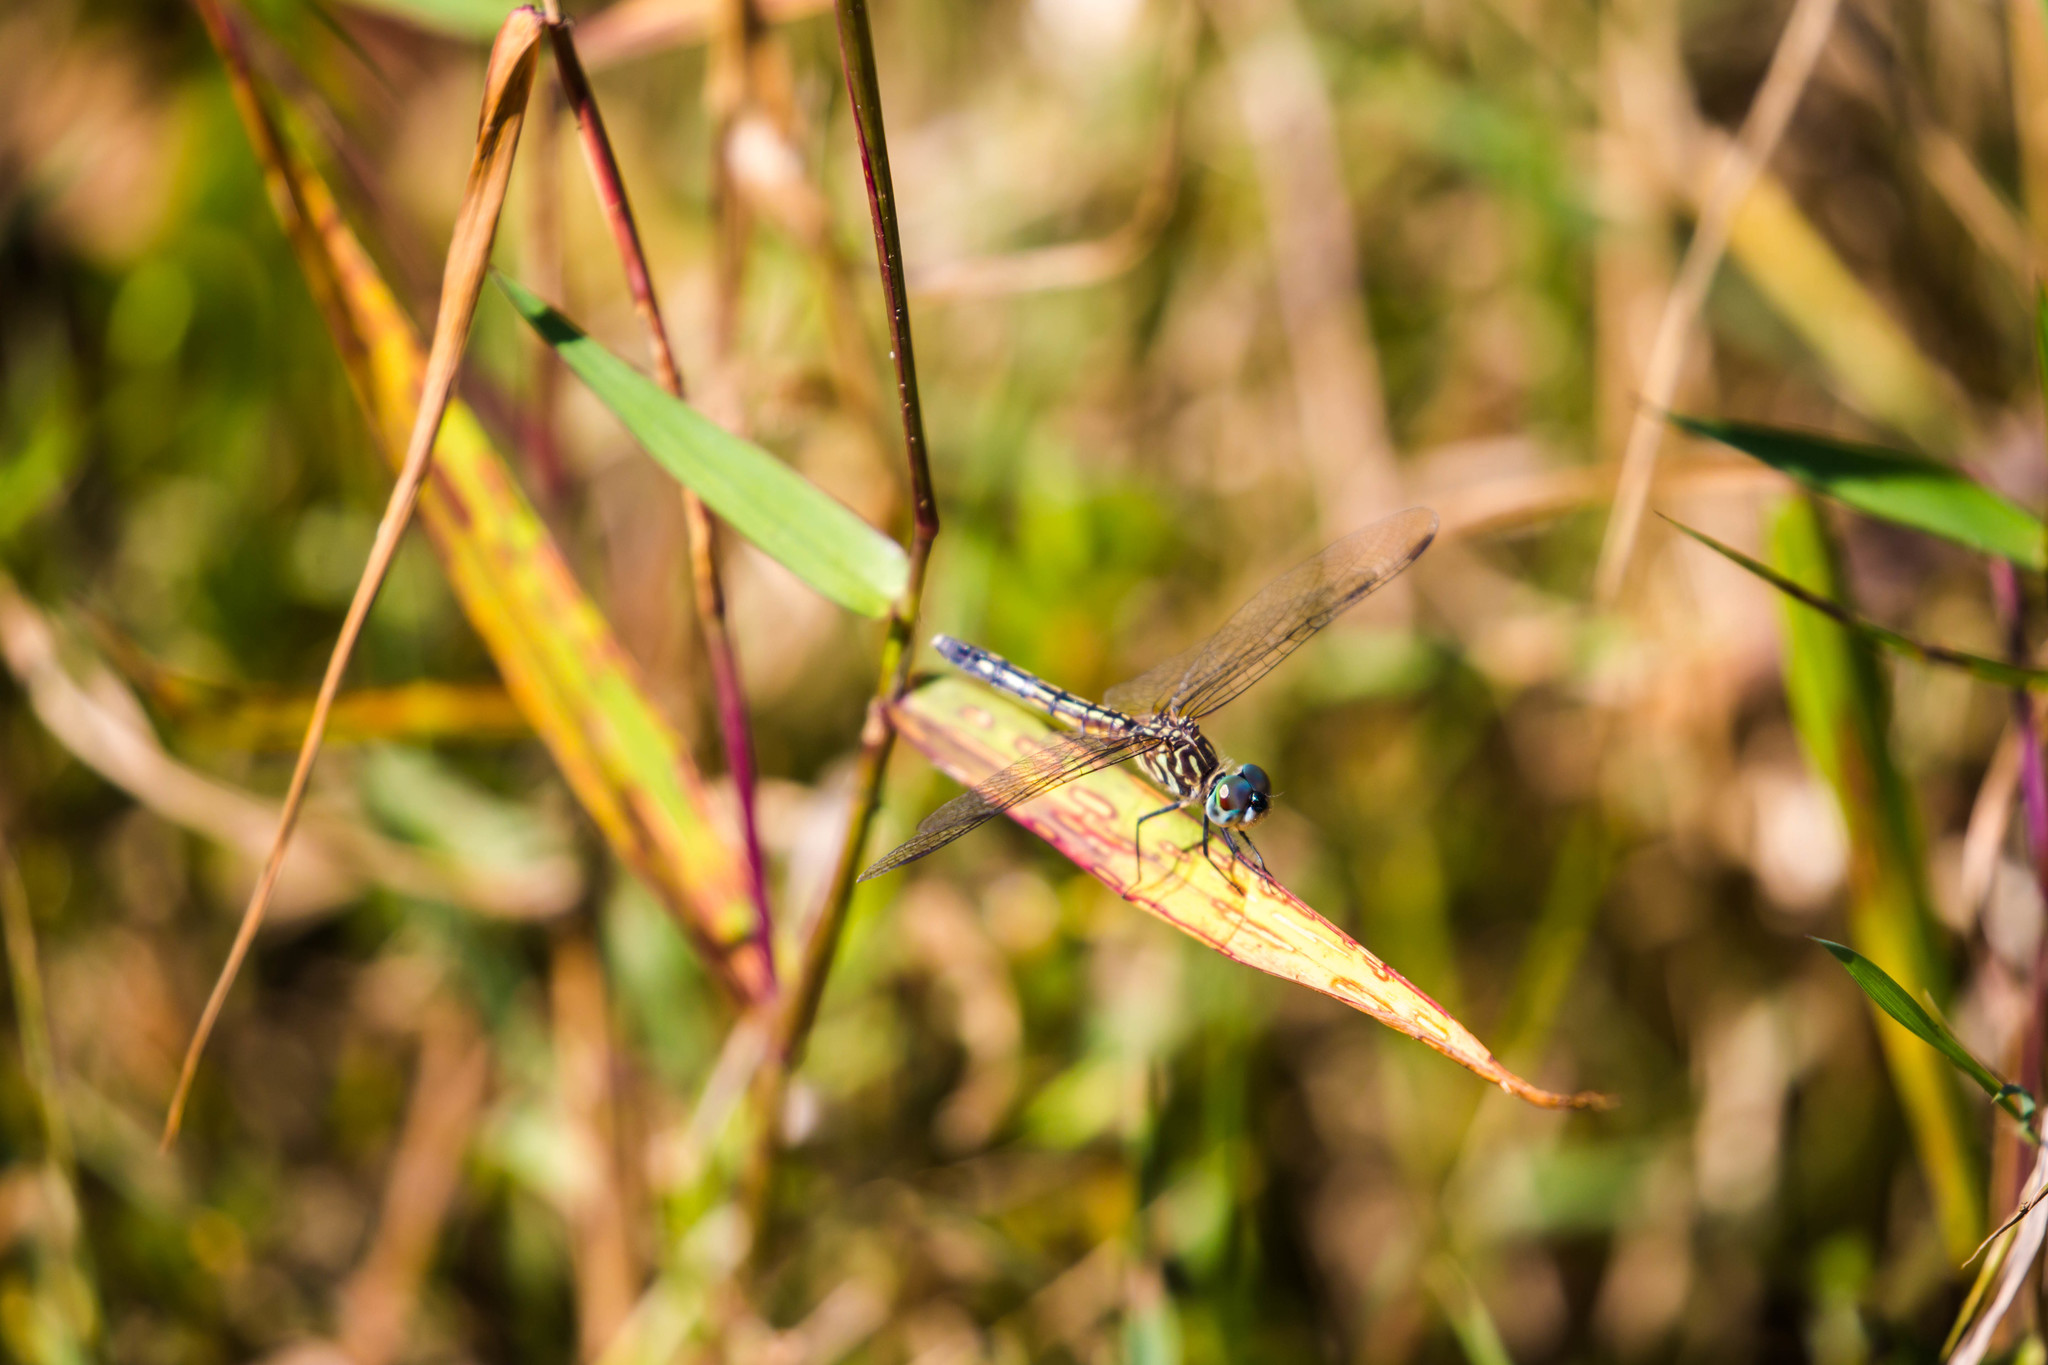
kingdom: Animalia
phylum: Arthropoda
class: Insecta
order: Odonata
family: Libellulidae
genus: Pachydiplax
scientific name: Pachydiplax longipennis
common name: Blue dasher
